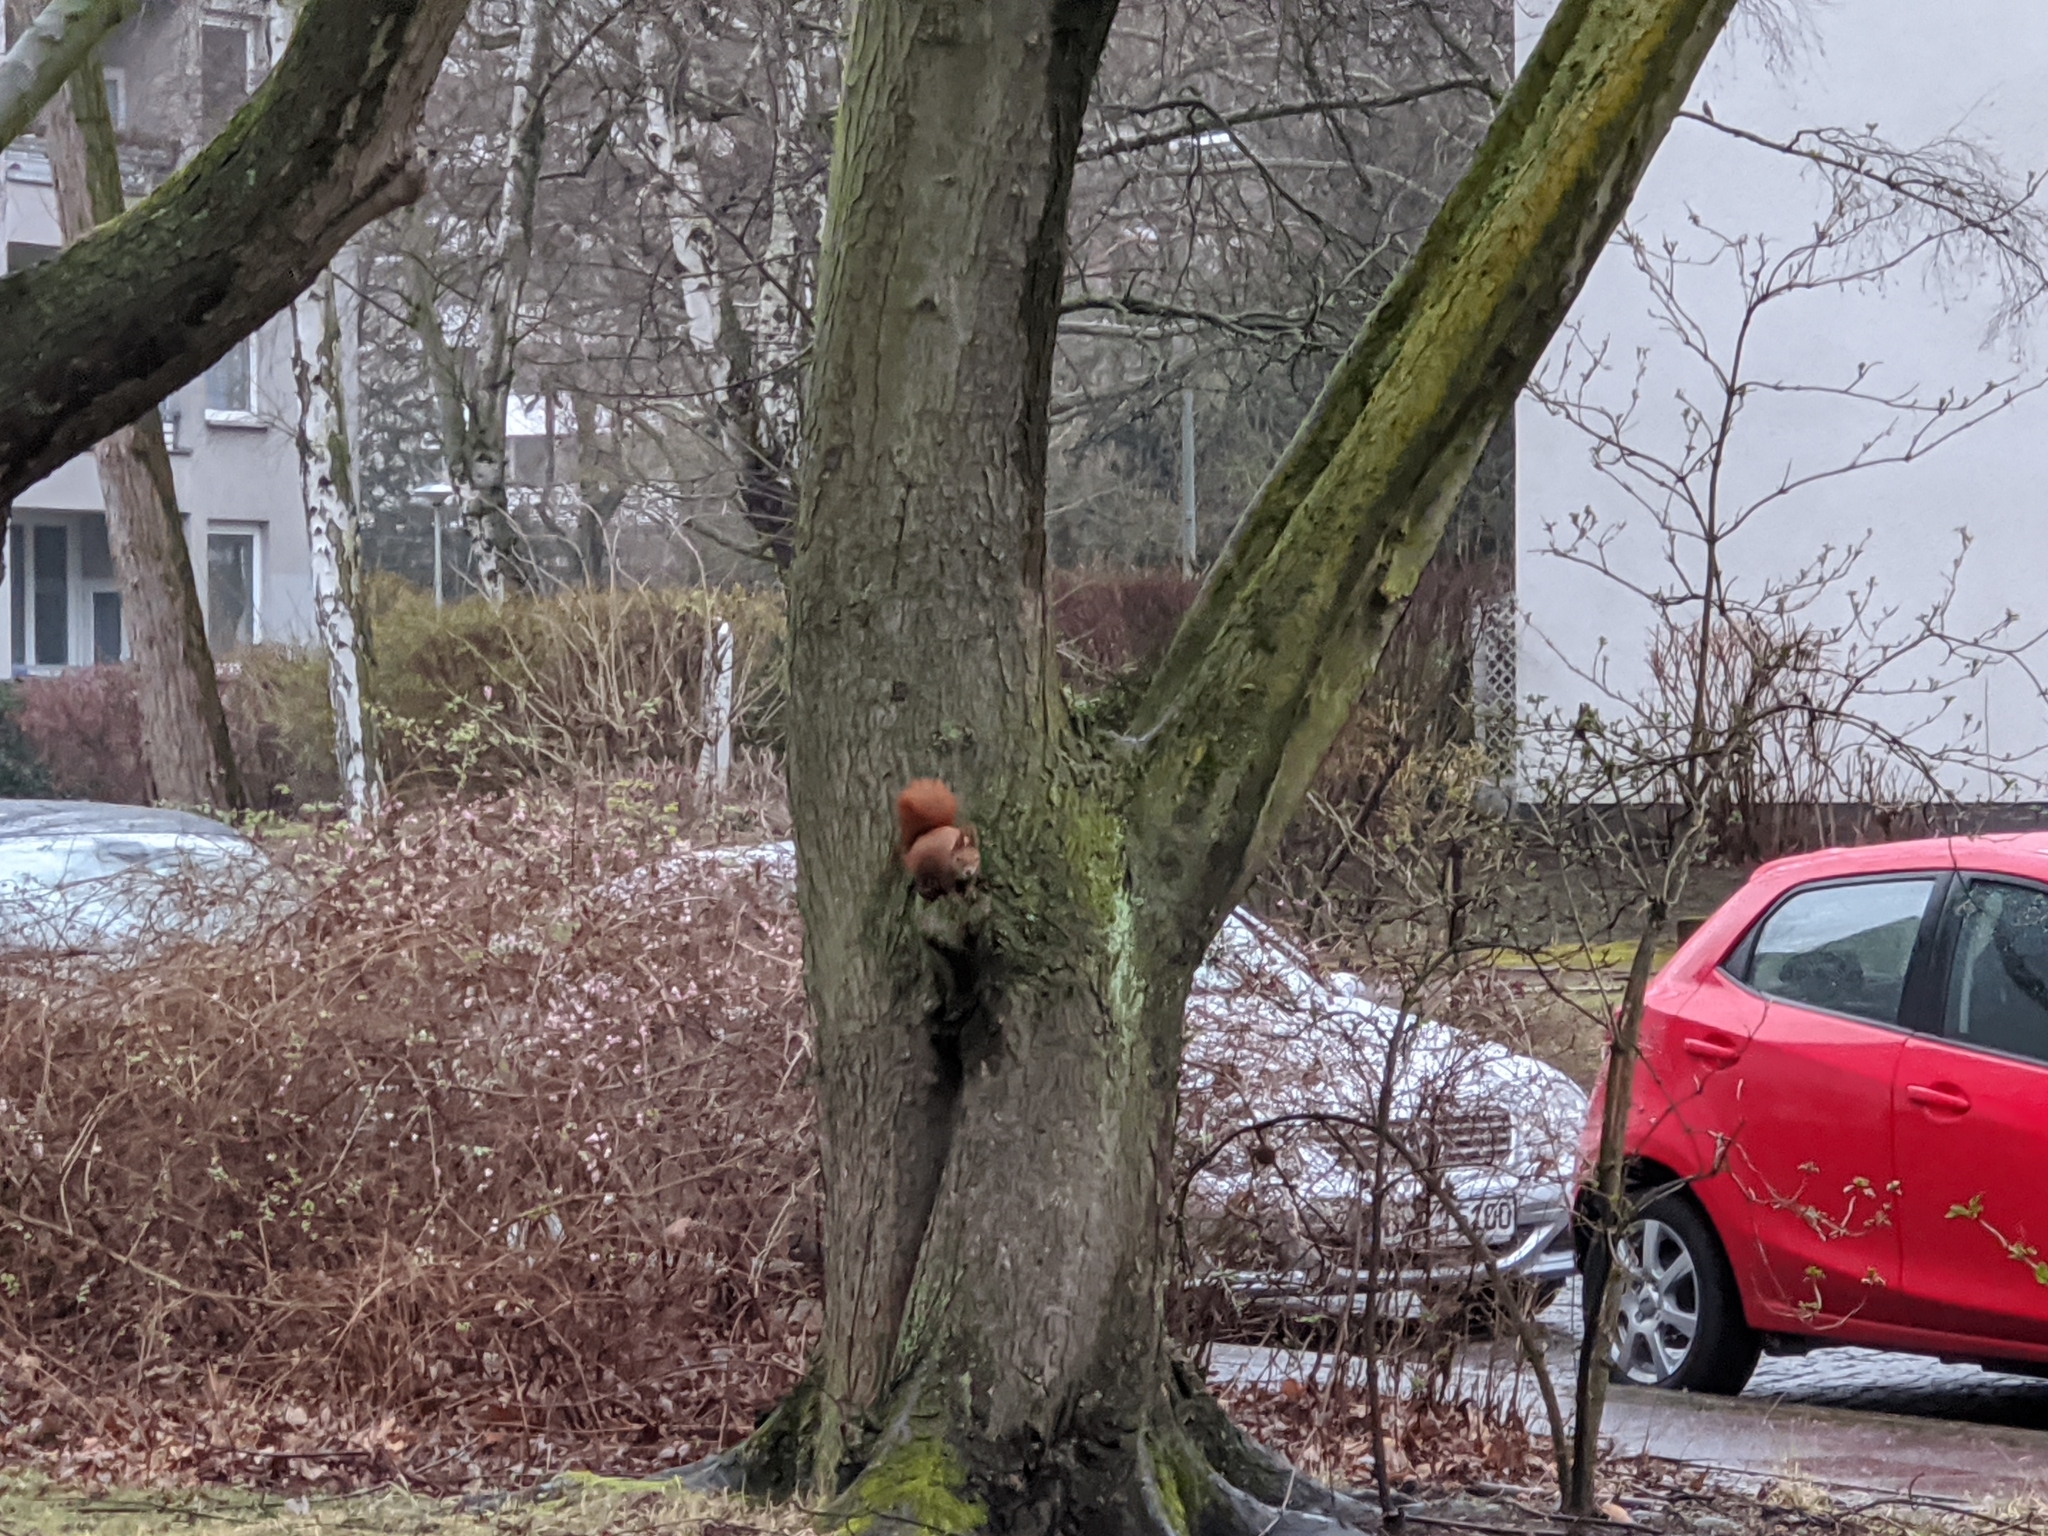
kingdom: Animalia
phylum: Chordata
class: Mammalia
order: Rodentia
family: Sciuridae
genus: Sciurus
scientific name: Sciurus vulgaris
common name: Eurasian red squirrel
